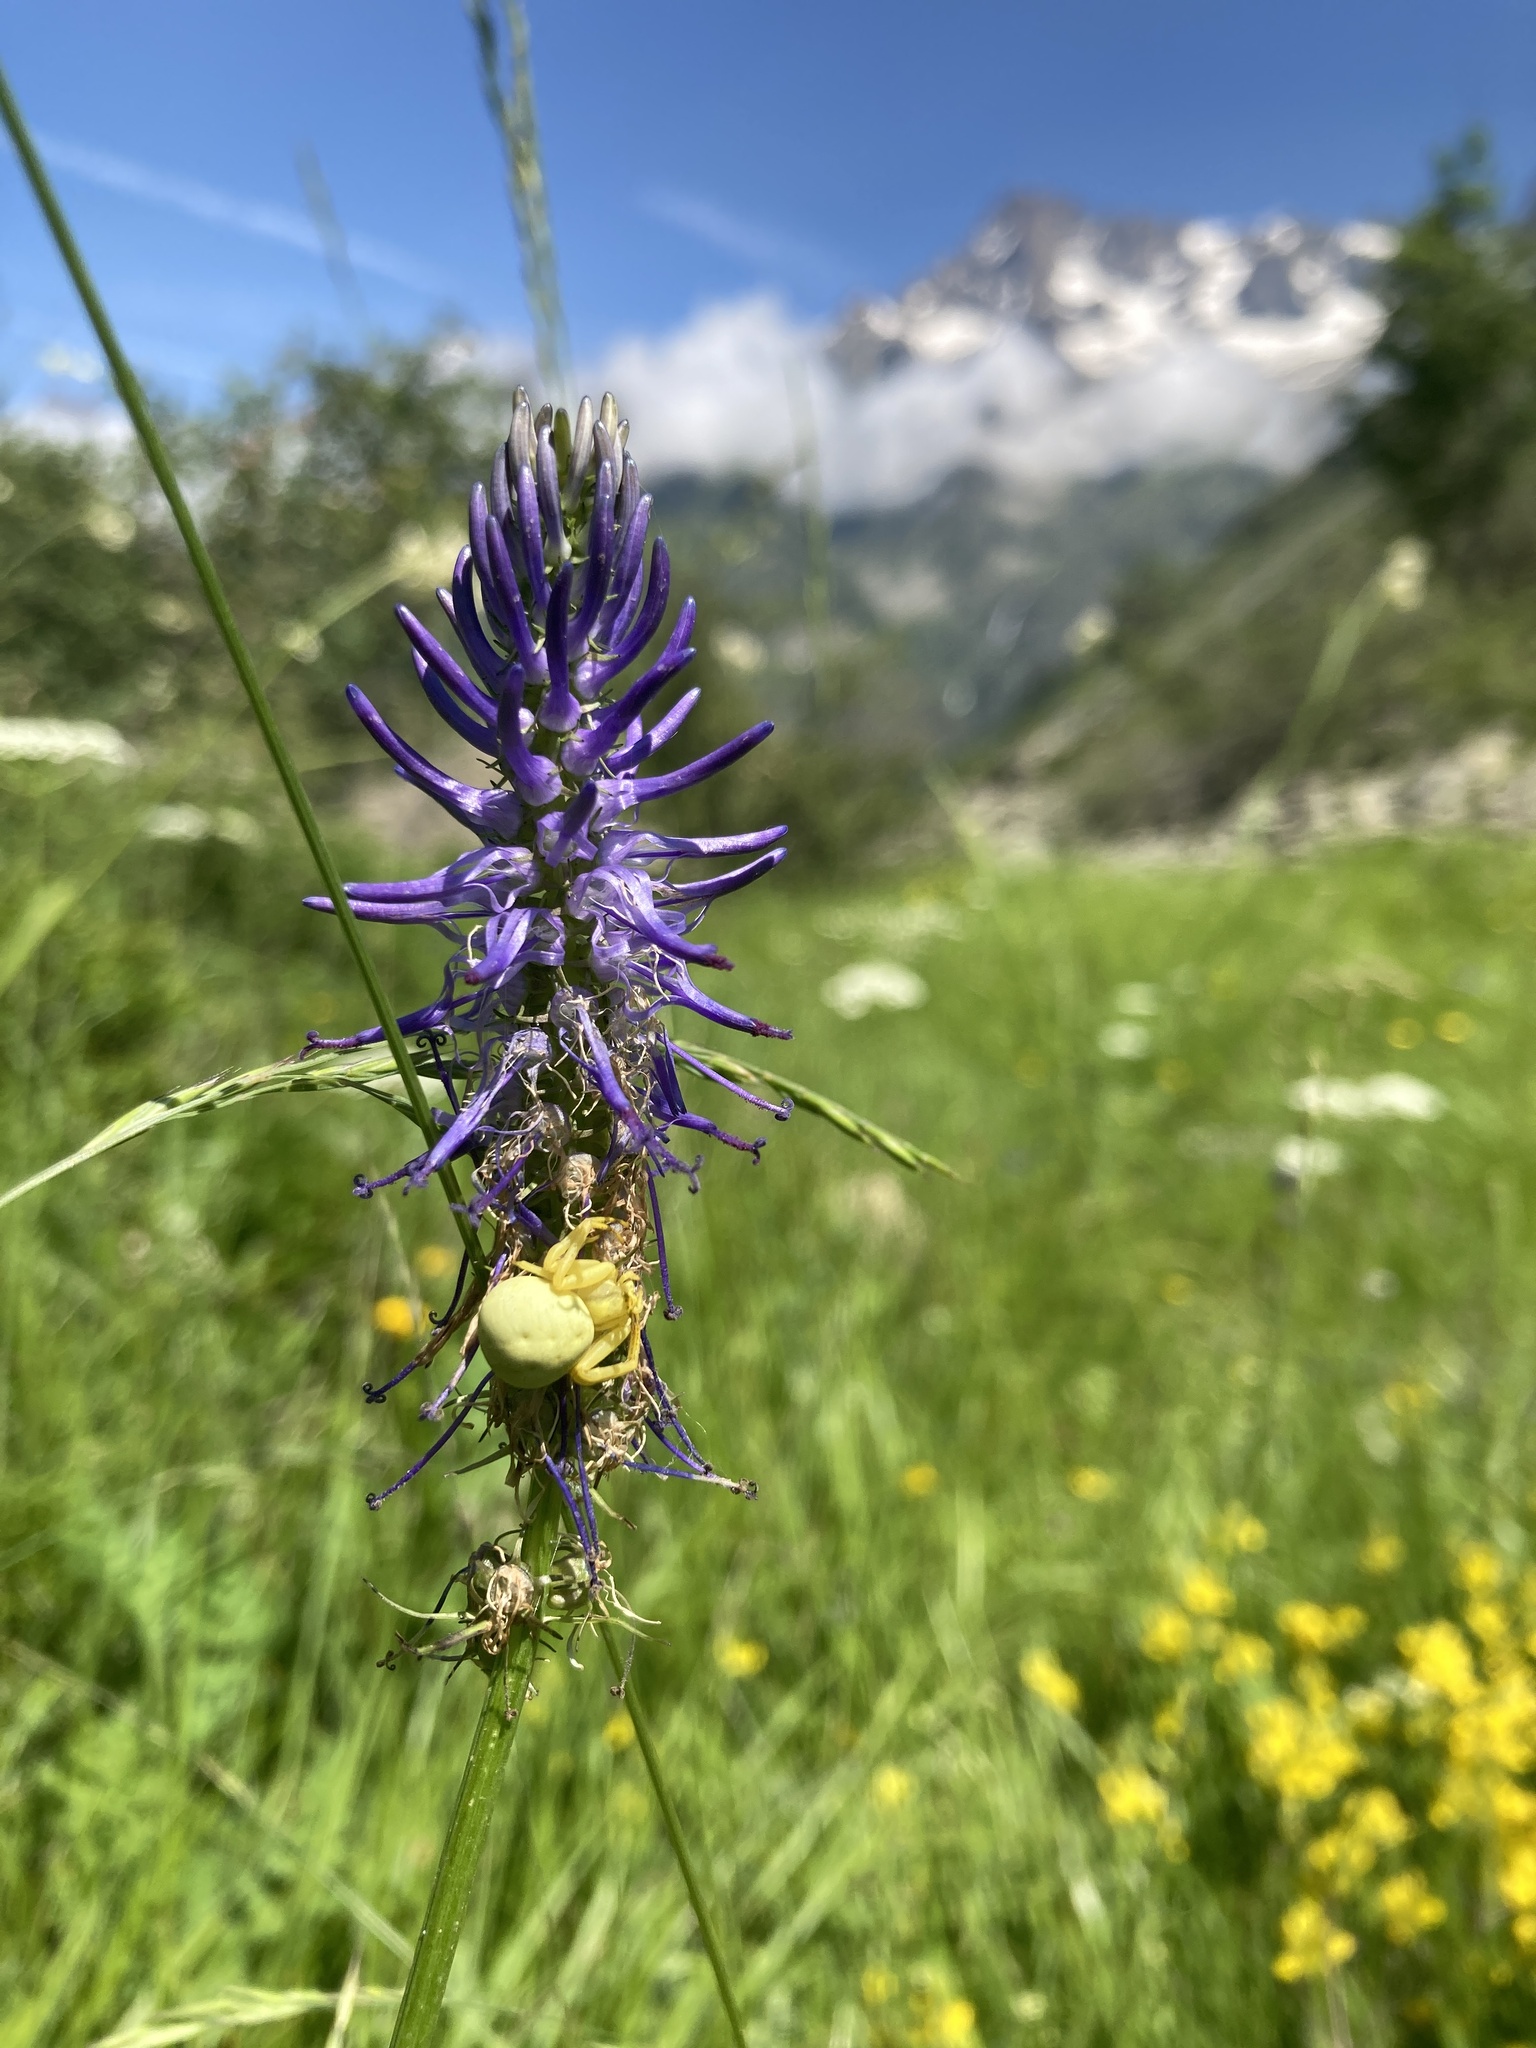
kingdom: Animalia
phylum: Arthropoda
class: Arachnida
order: Araneae
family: Thomisidae
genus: Misumena
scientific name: Misumena vatia
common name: Goldenrod crab spider
